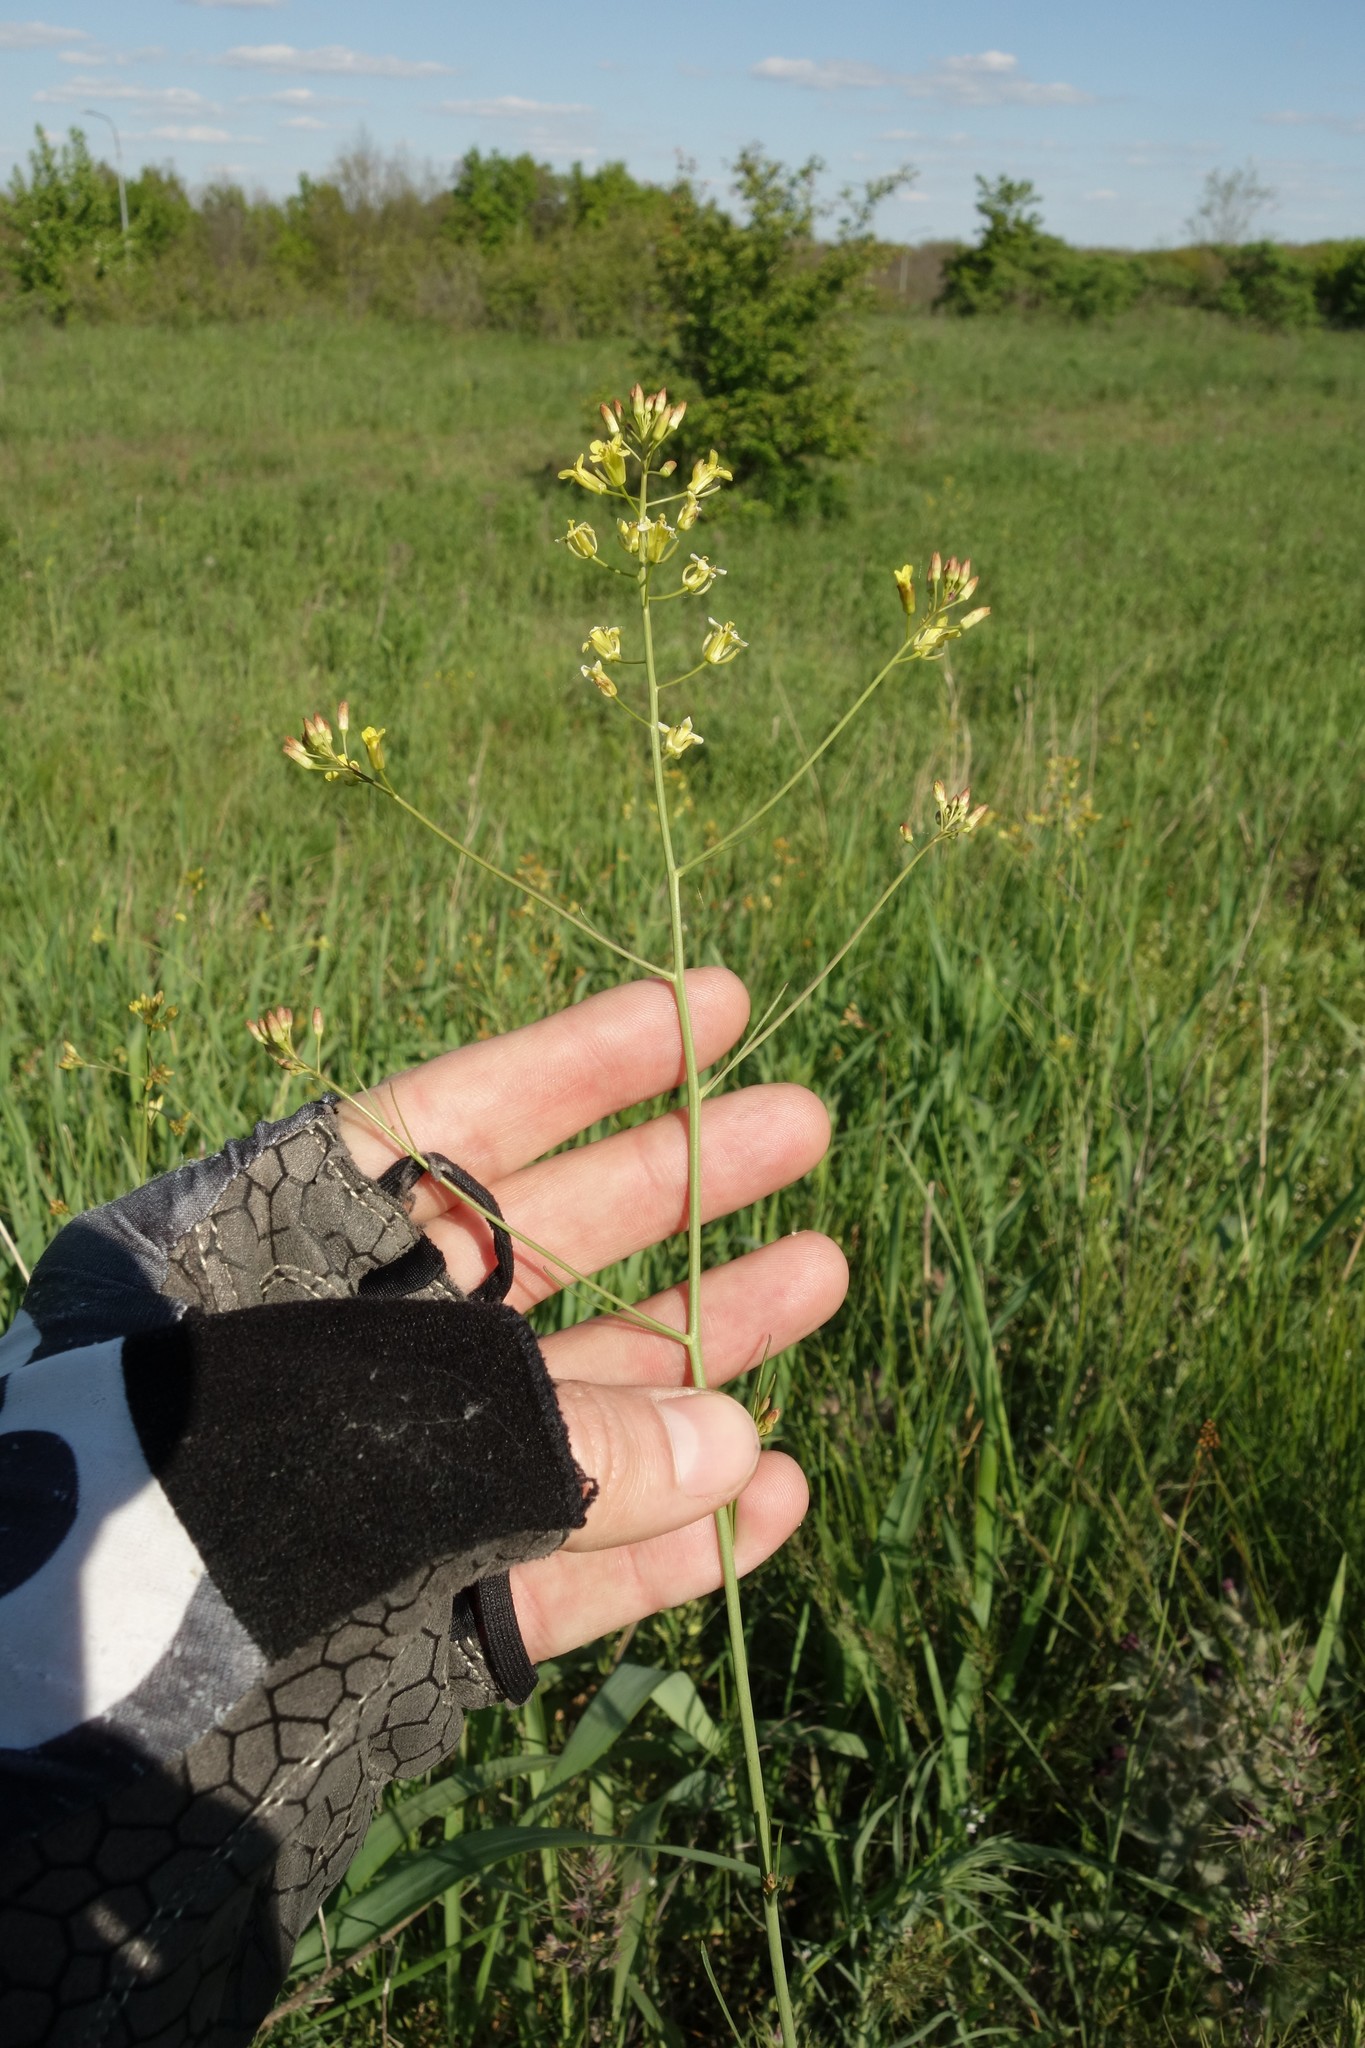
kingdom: Plantae
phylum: Tracheophyta
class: Magnoliopsida
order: Brassicales
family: Brassicaceae
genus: Sisymbrium
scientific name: Sisymbrium polymorphum
